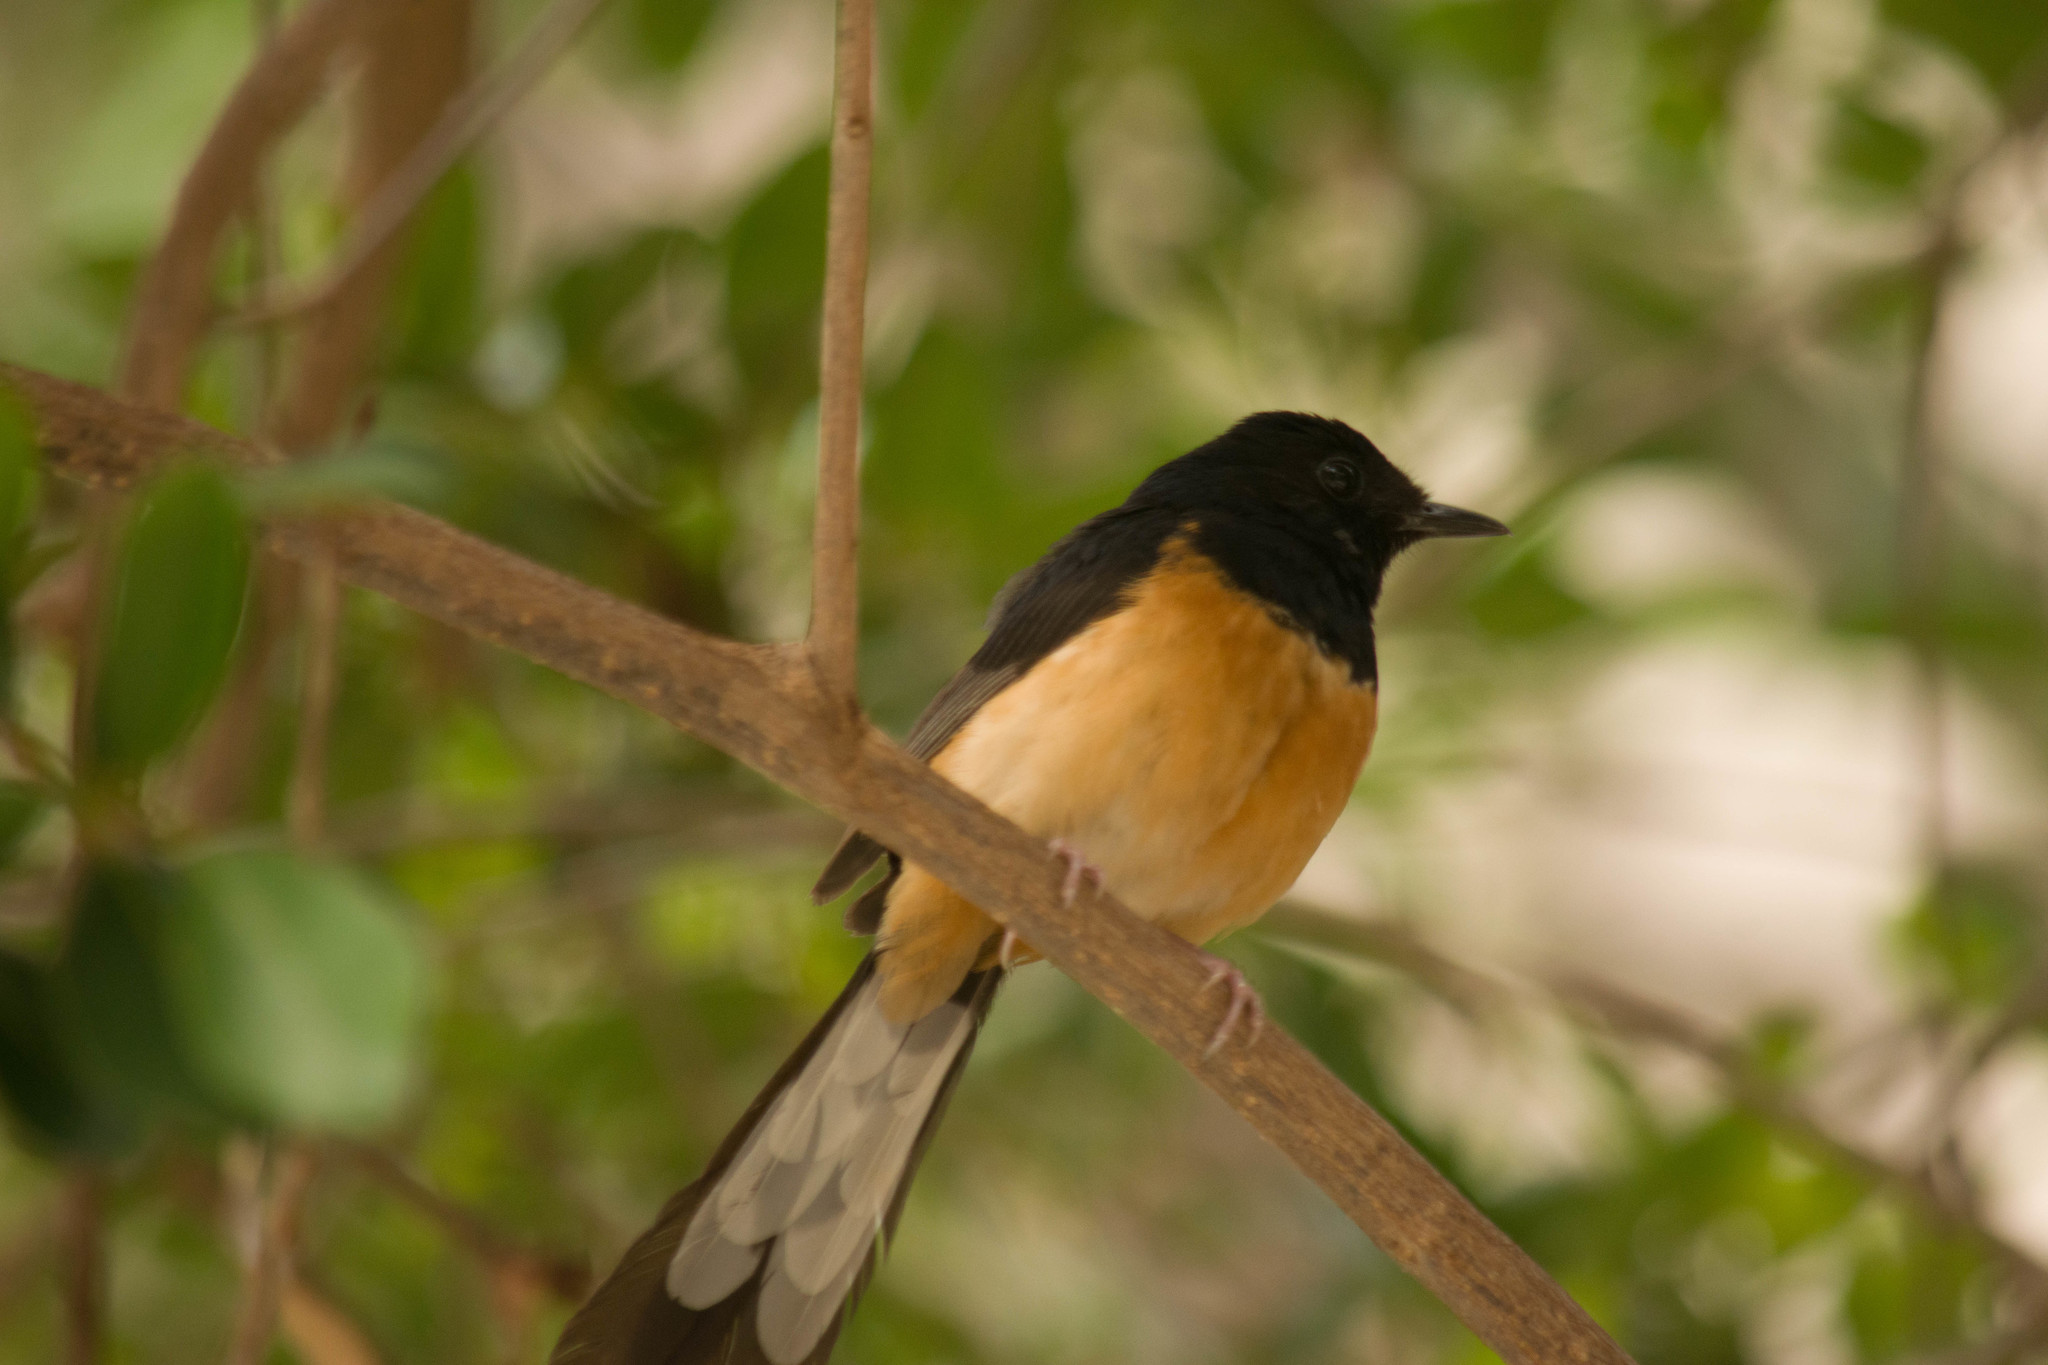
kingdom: Animalia
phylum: Chordata
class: Aves
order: Passeriformes
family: Muscicapidae
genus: Copsychus
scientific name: Copsychus malabaricus
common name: White-rumped shama
